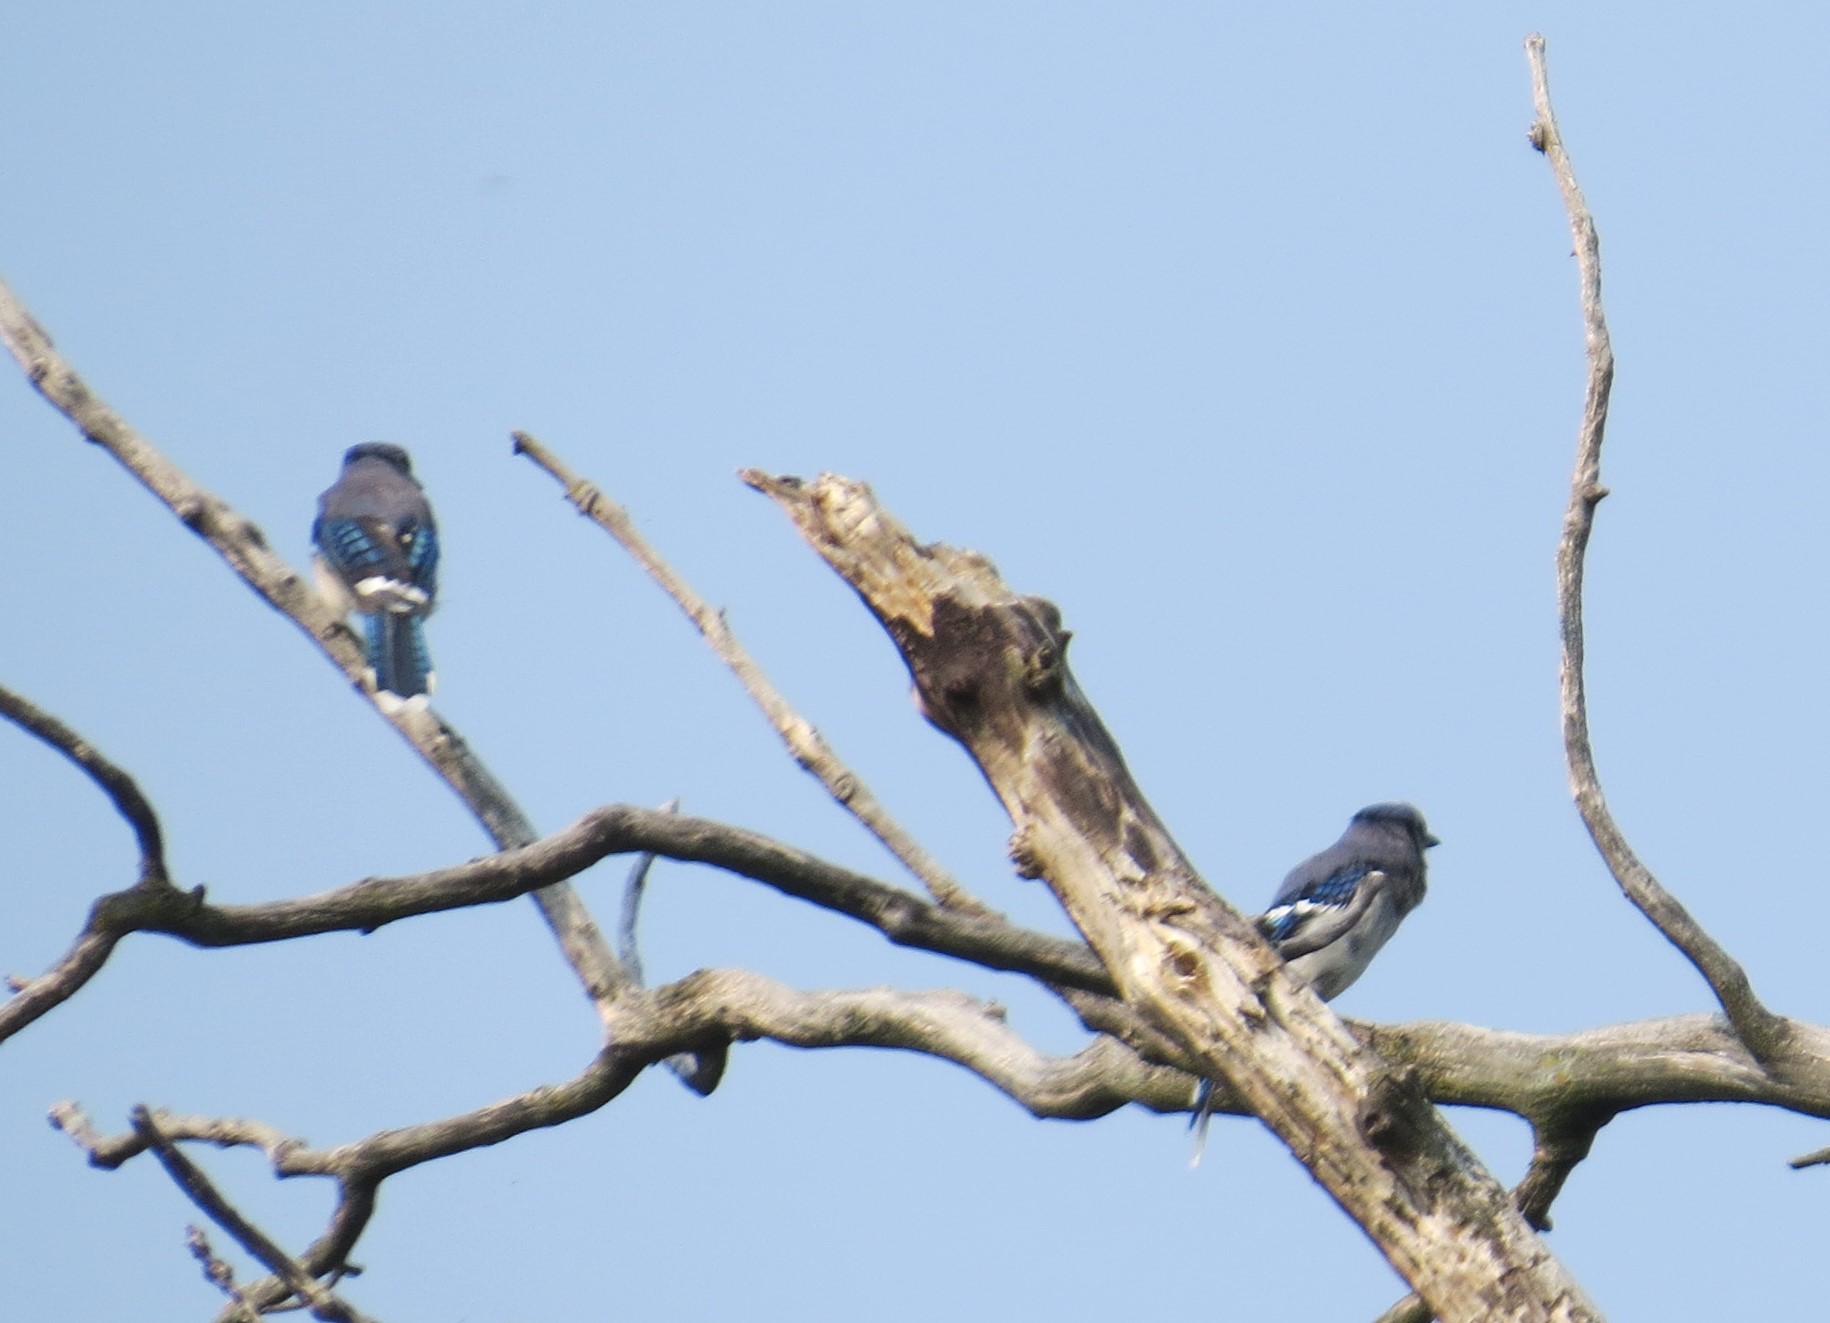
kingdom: Animalia
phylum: Chordata
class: Aves
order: Passeriformes
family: Corvidae
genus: Cyanocitta
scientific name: Cyanocitta cristata
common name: Blue jay
